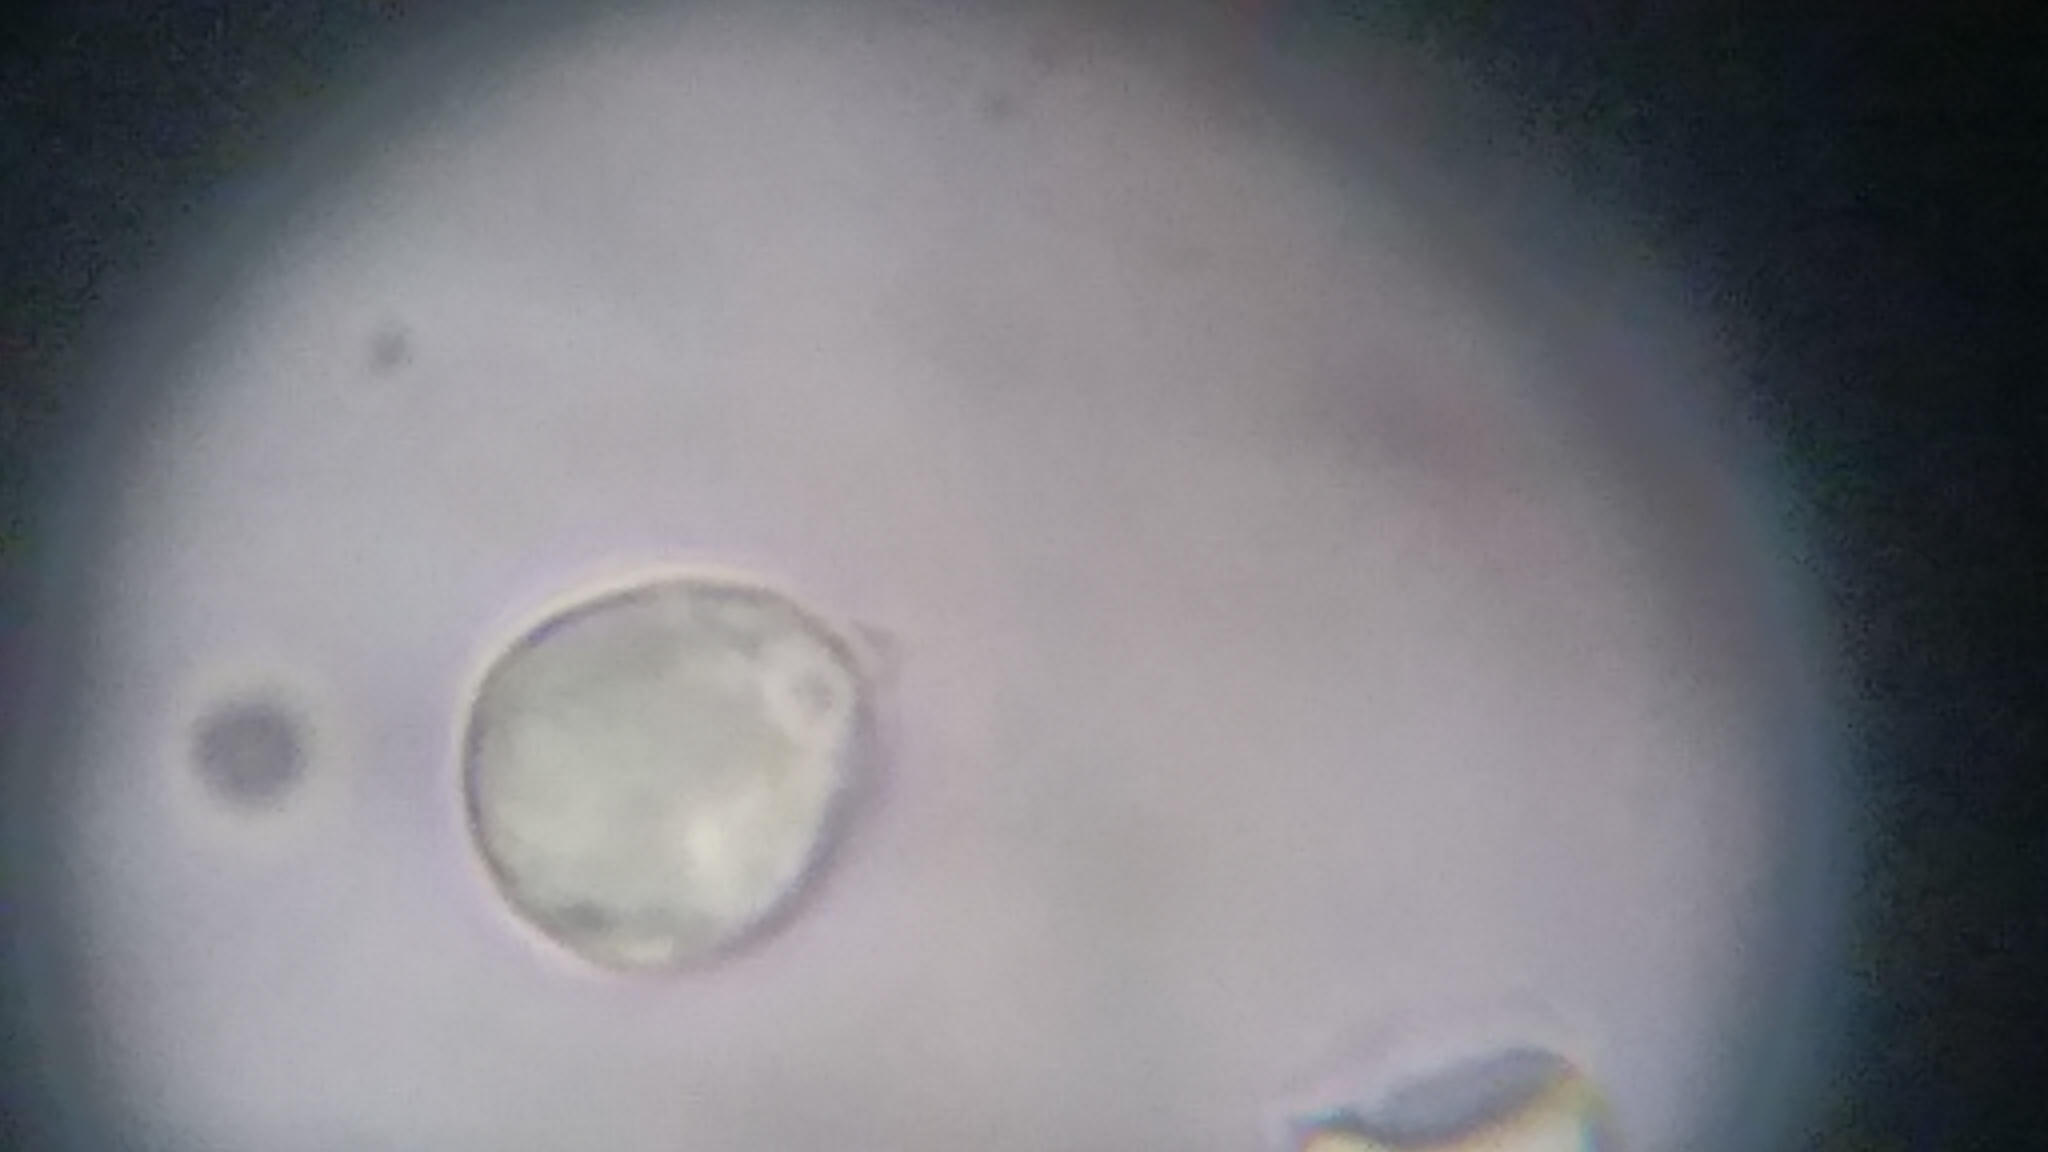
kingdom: Fungi
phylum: Basidiomycota
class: Agaricomycetes
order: Agaricales
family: Amanitaceae
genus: Amanita
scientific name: Amanita suballiacea
